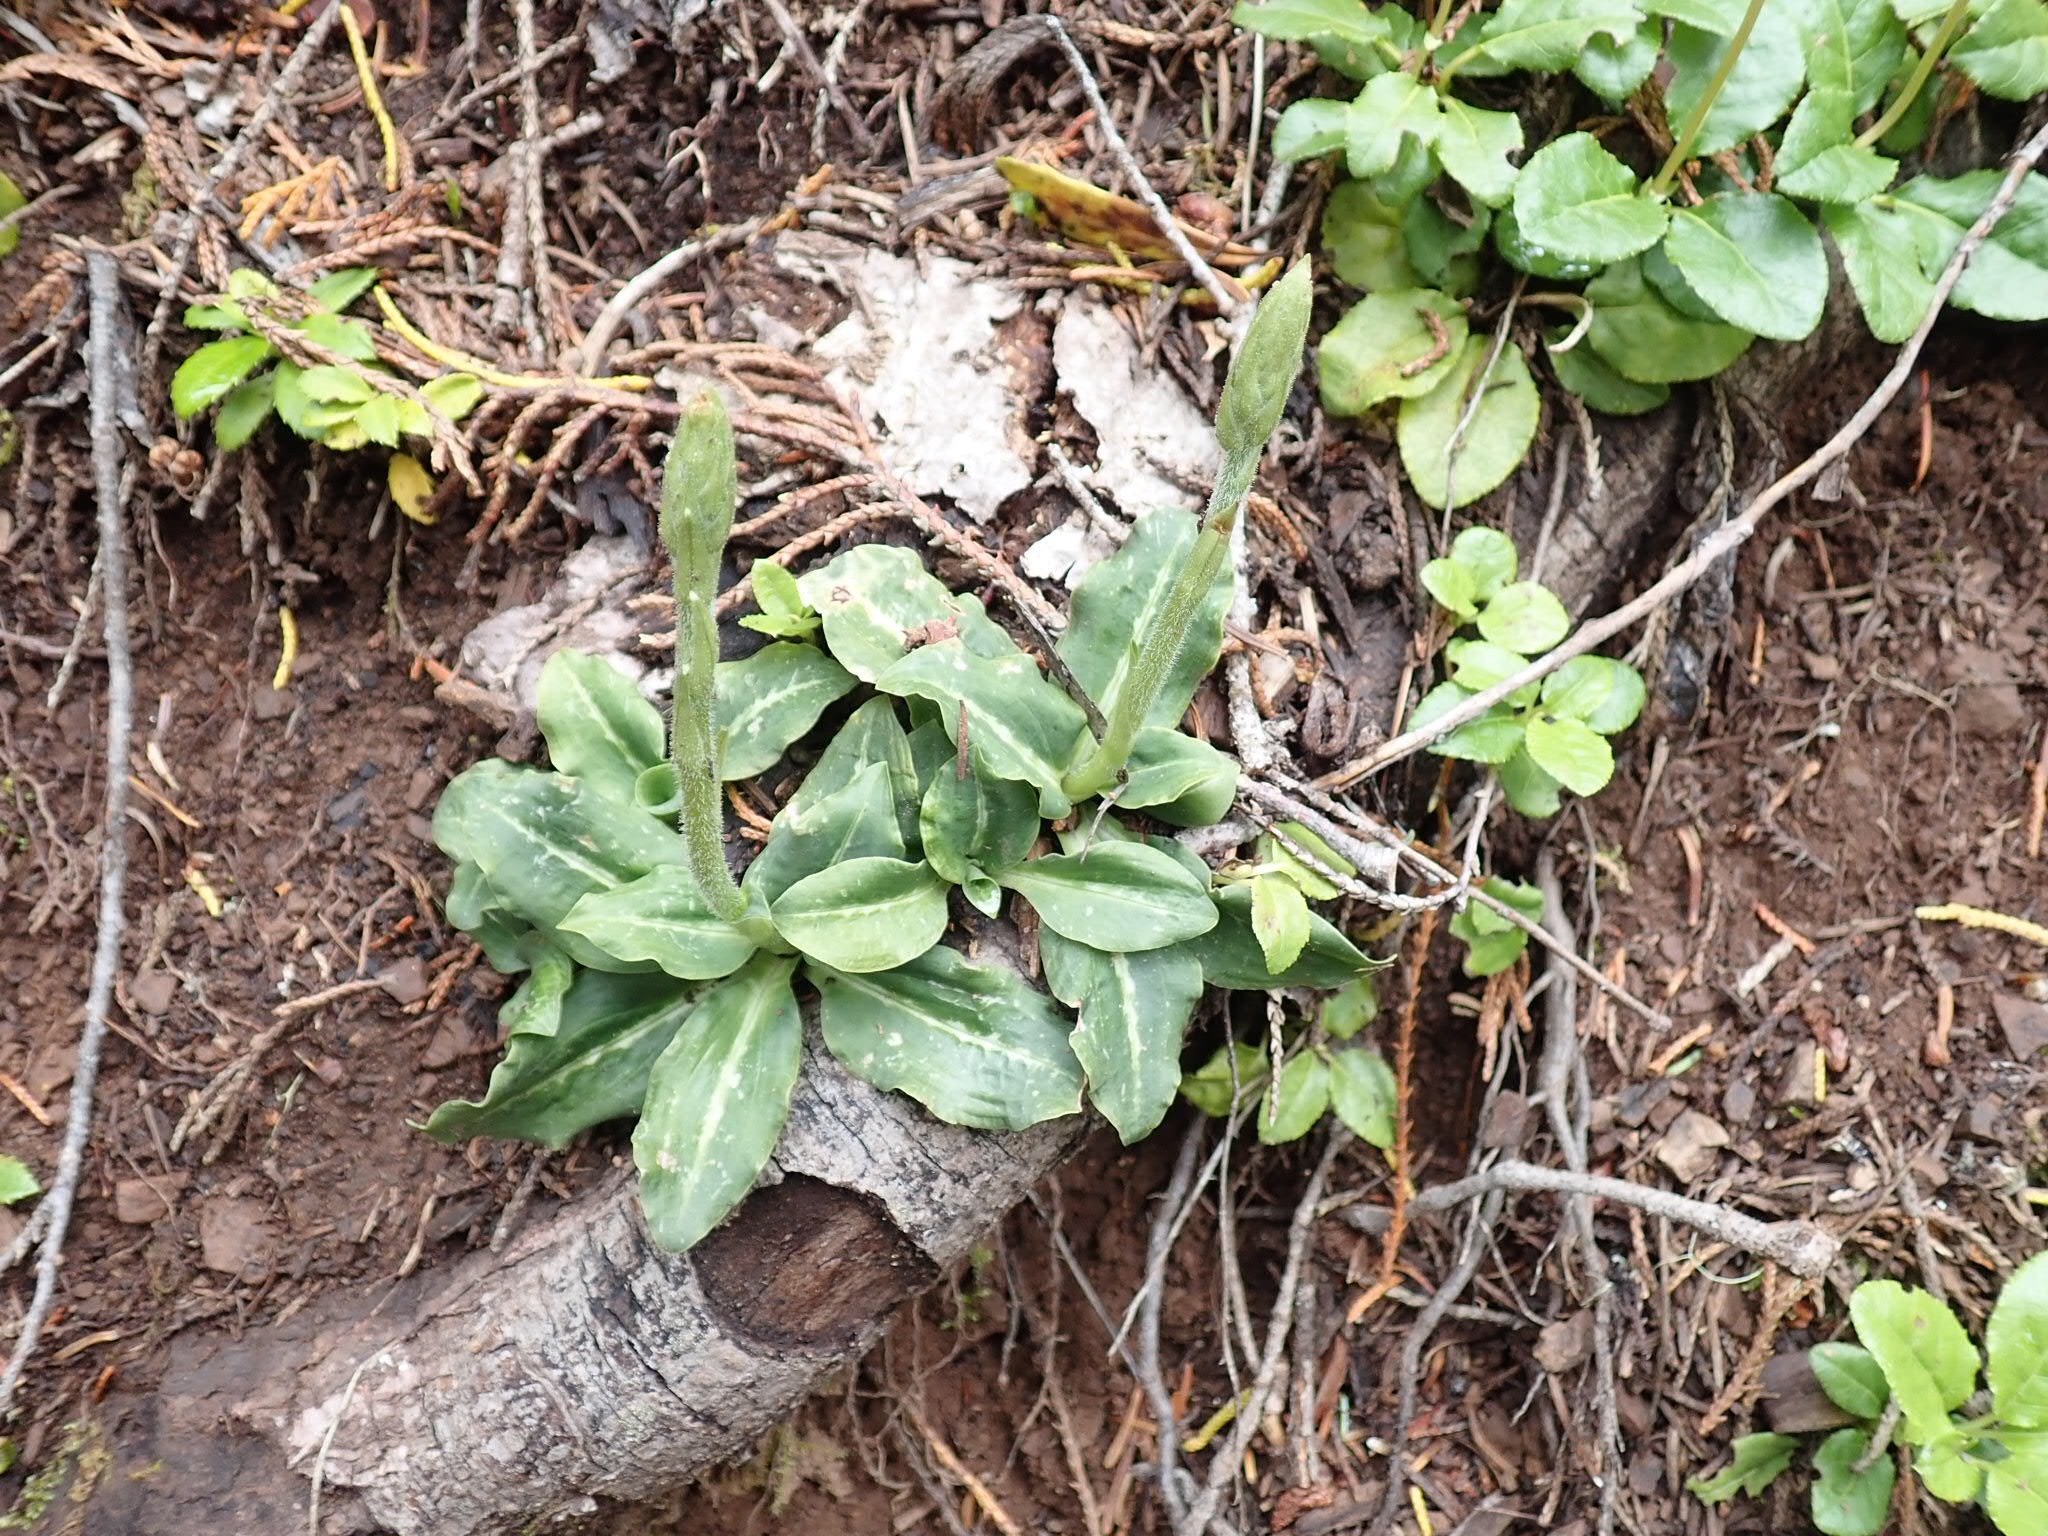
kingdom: Plantae
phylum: Tracheophyta
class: Liliopsida
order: Asparagales
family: Orchidaceae
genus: Goodyera
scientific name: Goodyera oblongifolia
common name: Giant rattlesnake-plantain
